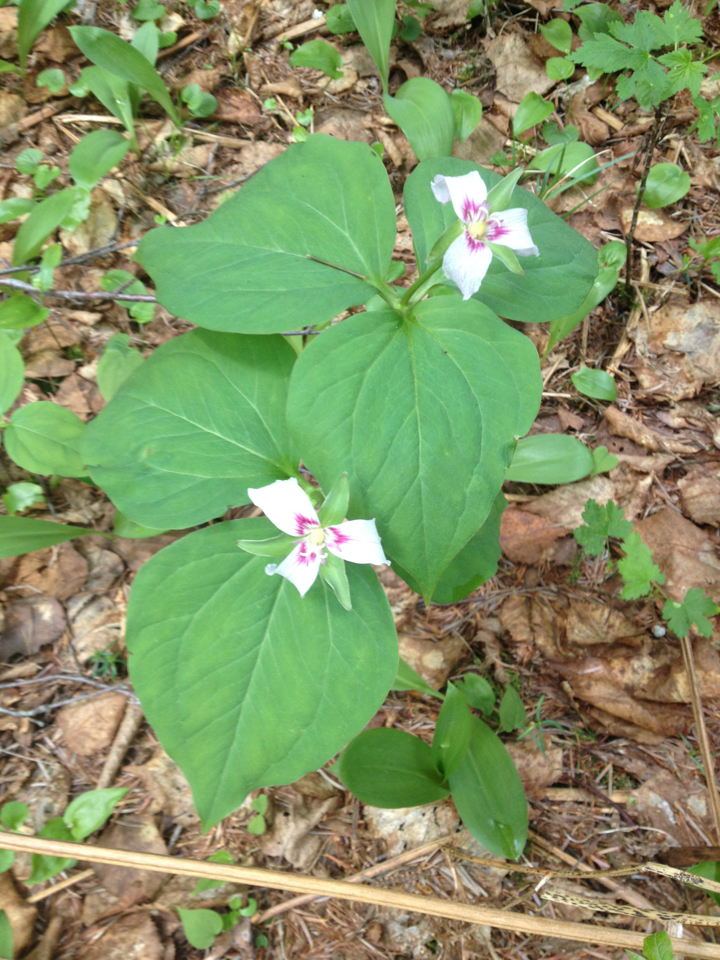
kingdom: Plantae
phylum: Tracheophyta
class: Liliopsida
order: Liliales
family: Melanthiaceae
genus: Trillium
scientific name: Trillium undulatum
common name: Paint trillium
